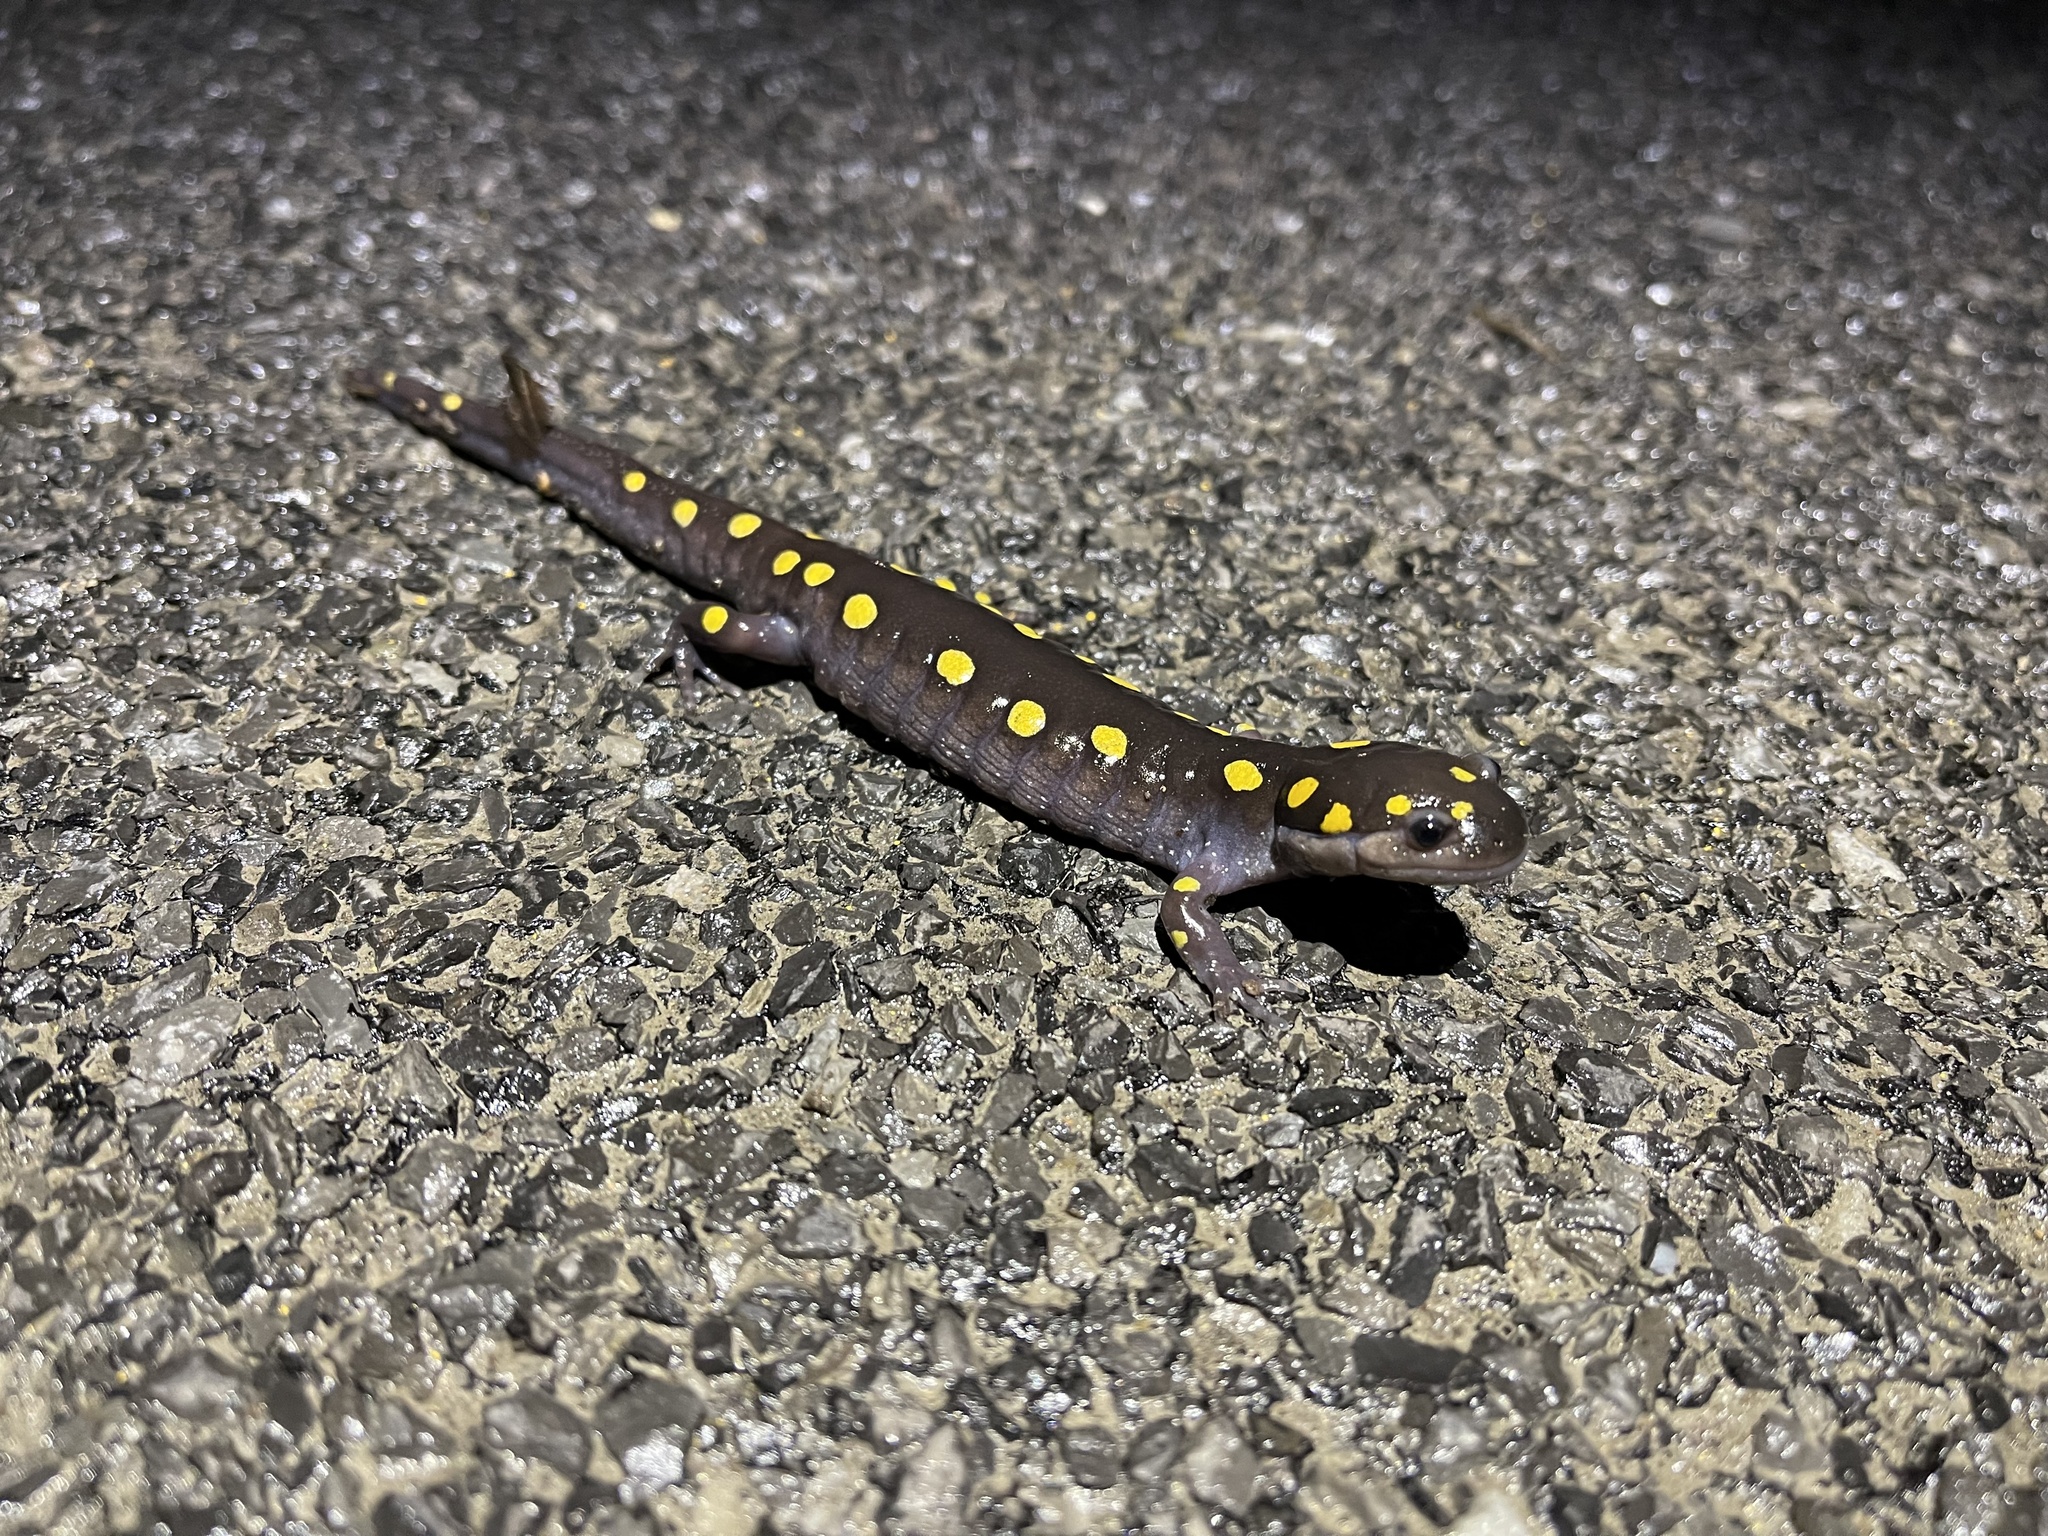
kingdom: Animalia
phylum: Chordata
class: Amphibia
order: Caudata
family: Ambystomatidae
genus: Ambystoma
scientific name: Ambystoma maculatum
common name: Spotted salamander
